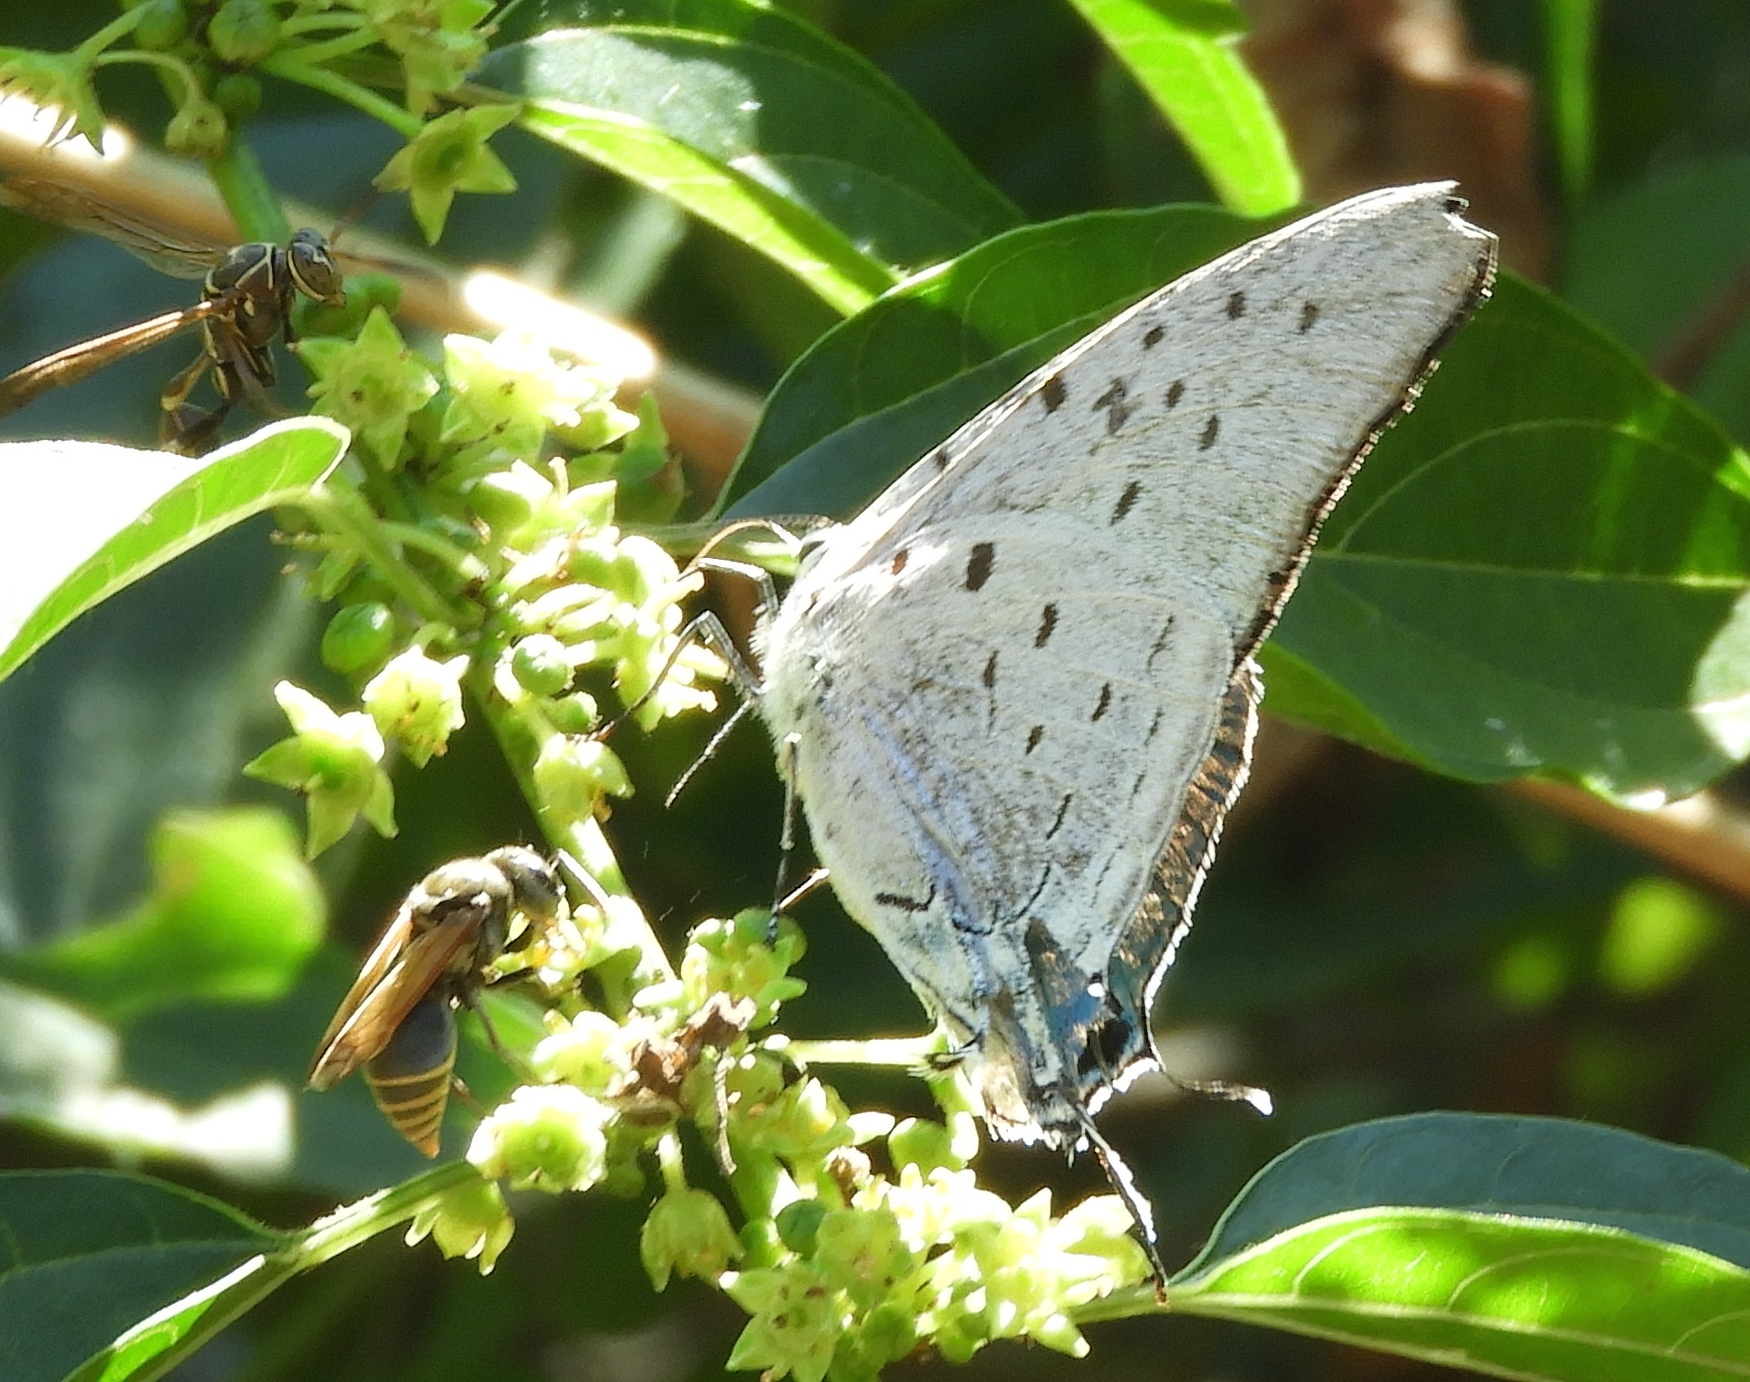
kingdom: Animalia
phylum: Arthropoda
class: Insecta
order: Lepidoptera
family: Lycaenidae
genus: Pseudolycaena
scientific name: Pseudolycaena damo
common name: Sky-blue hairstreak
